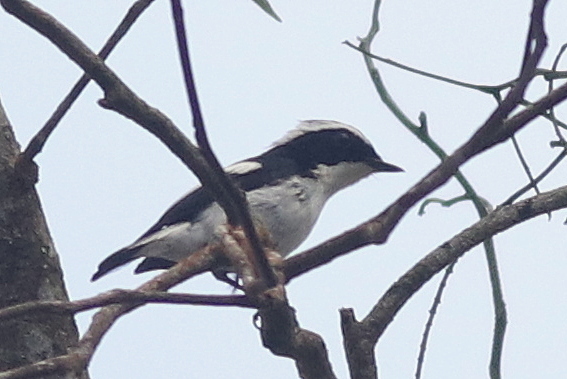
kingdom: Animalia
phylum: Chordata
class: Aves
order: Passeriformes
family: Muscicapidae
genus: Ficedula
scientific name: Ficedula westermanni
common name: Little pied flycatcher
